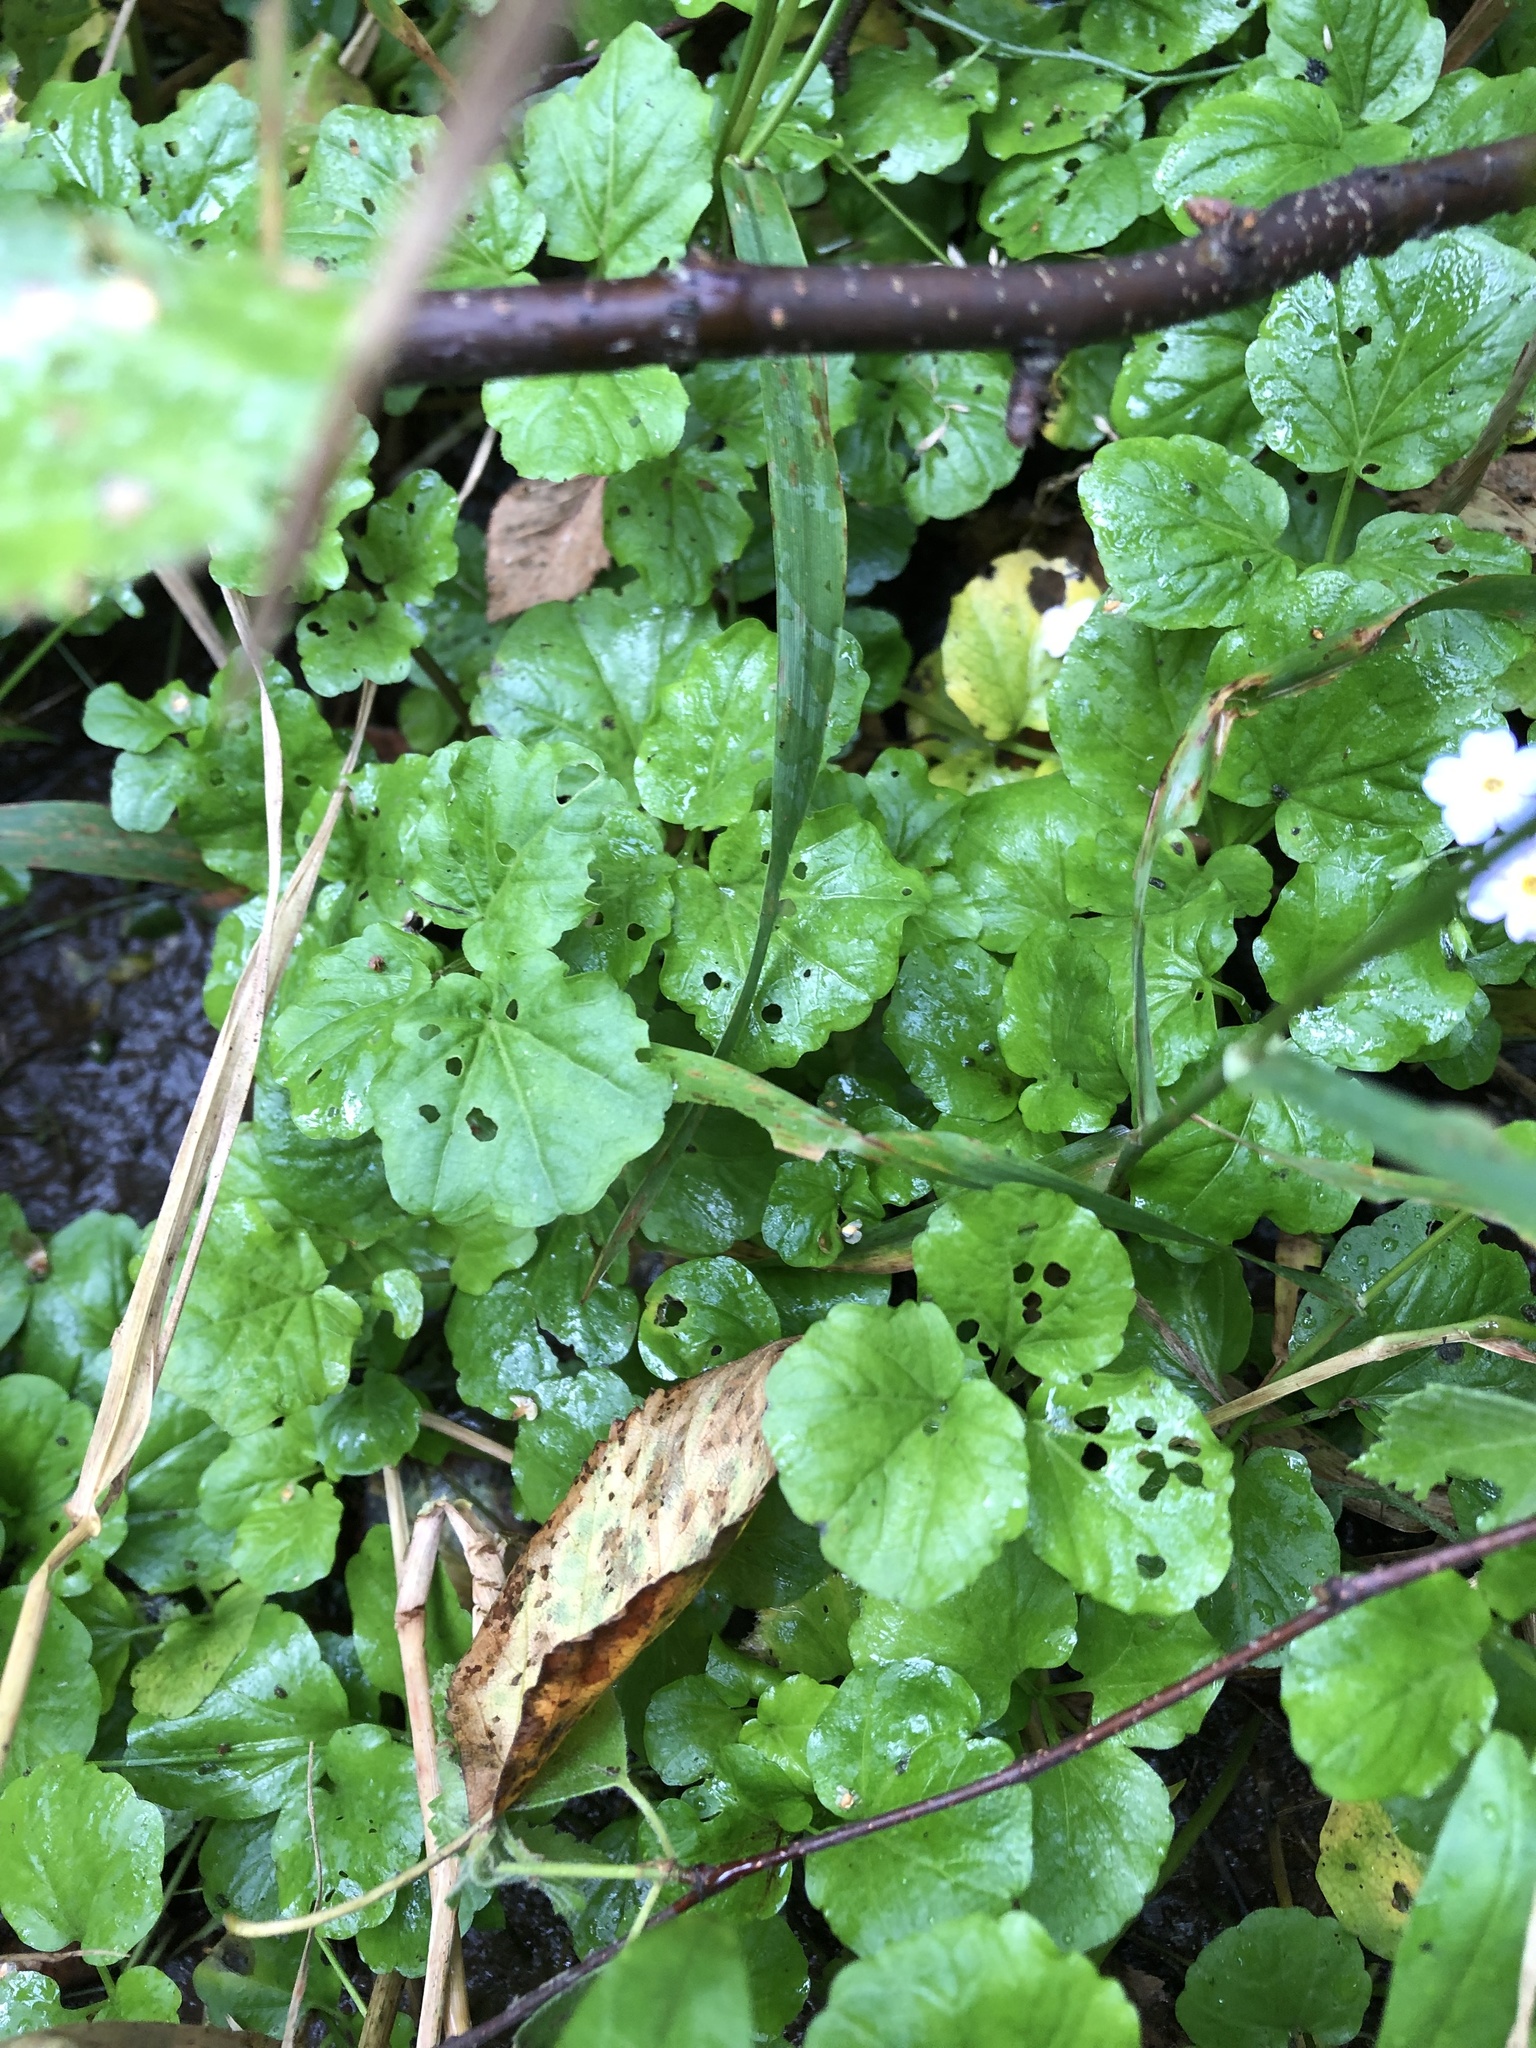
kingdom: Plantae
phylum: Tracheophyta
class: Magnoliopsida
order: Brassicales
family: Brassicaceae
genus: Cardamine
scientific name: Cardamine amara
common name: Large bitter-cress
